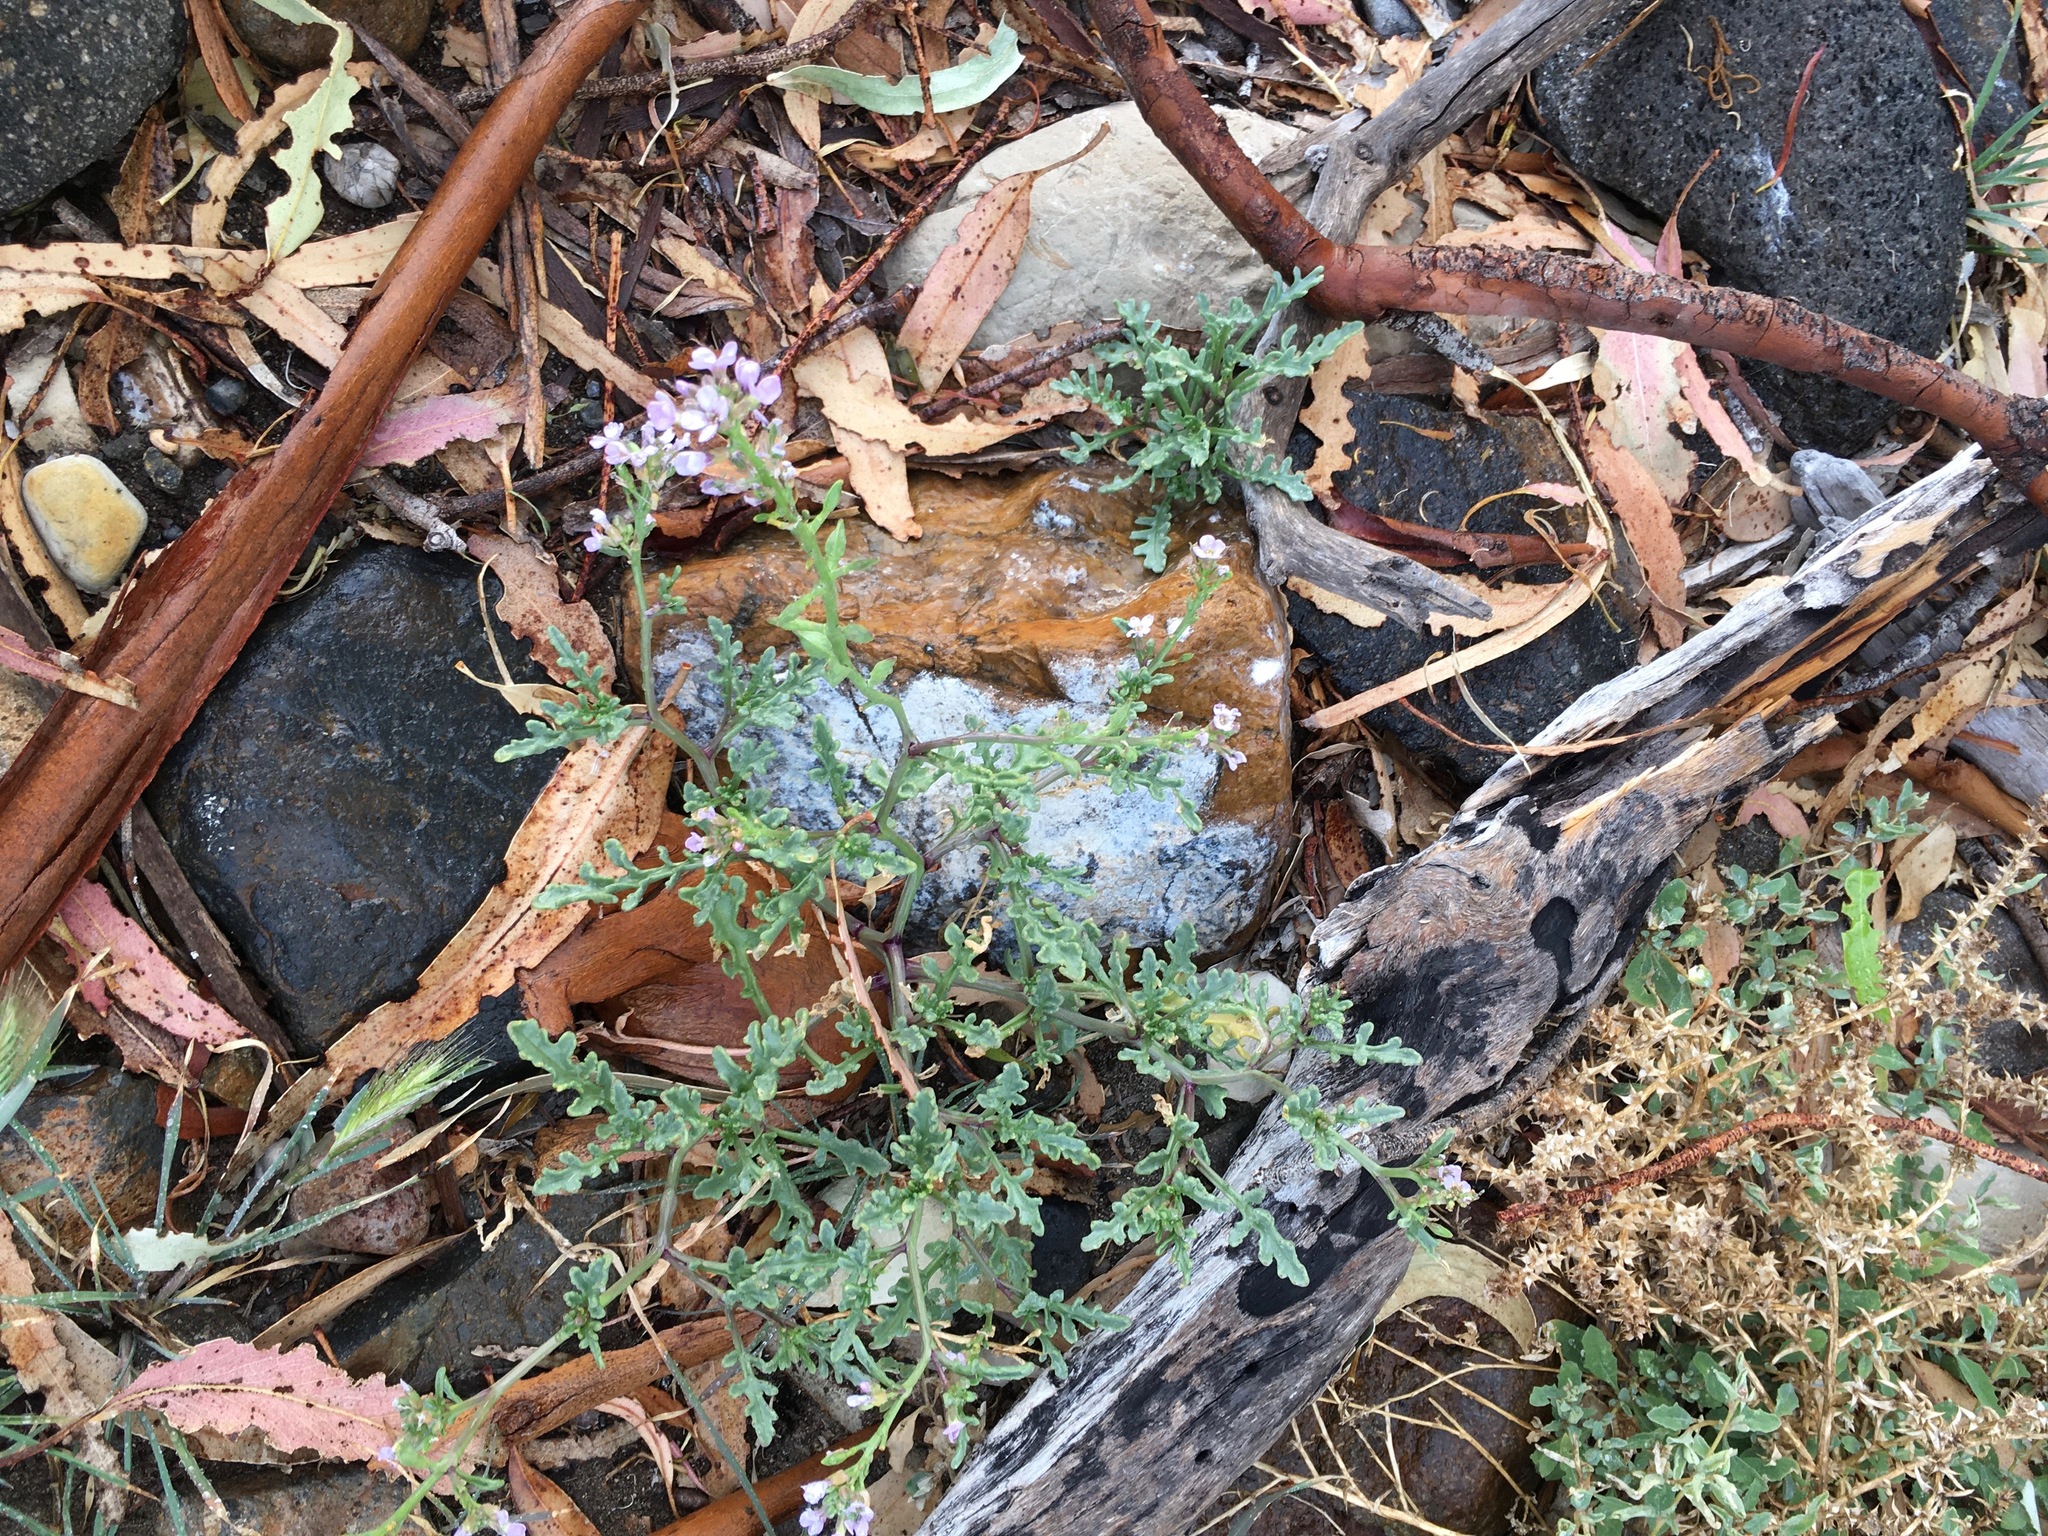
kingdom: Plantae
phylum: Tracheophyta
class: Magnoliopsida
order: Brassicales
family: Brassicaceae
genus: Cakile
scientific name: Cakile maritima
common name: Sea rocket
